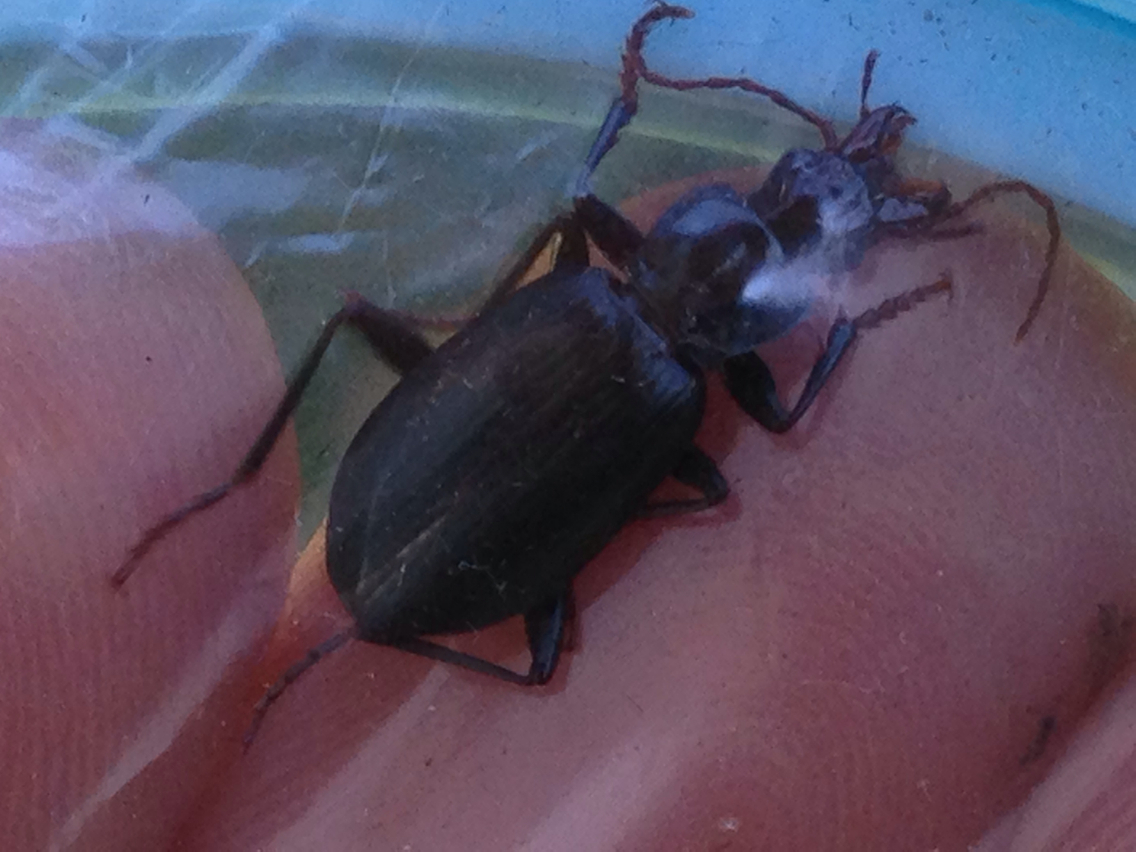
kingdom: Animalia
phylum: Arthropoda
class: Insecta
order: Coleoptera
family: Carabidae
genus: Laemostenus
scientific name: Laemostenus complanatus
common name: Cosmopolitan ground beetle
